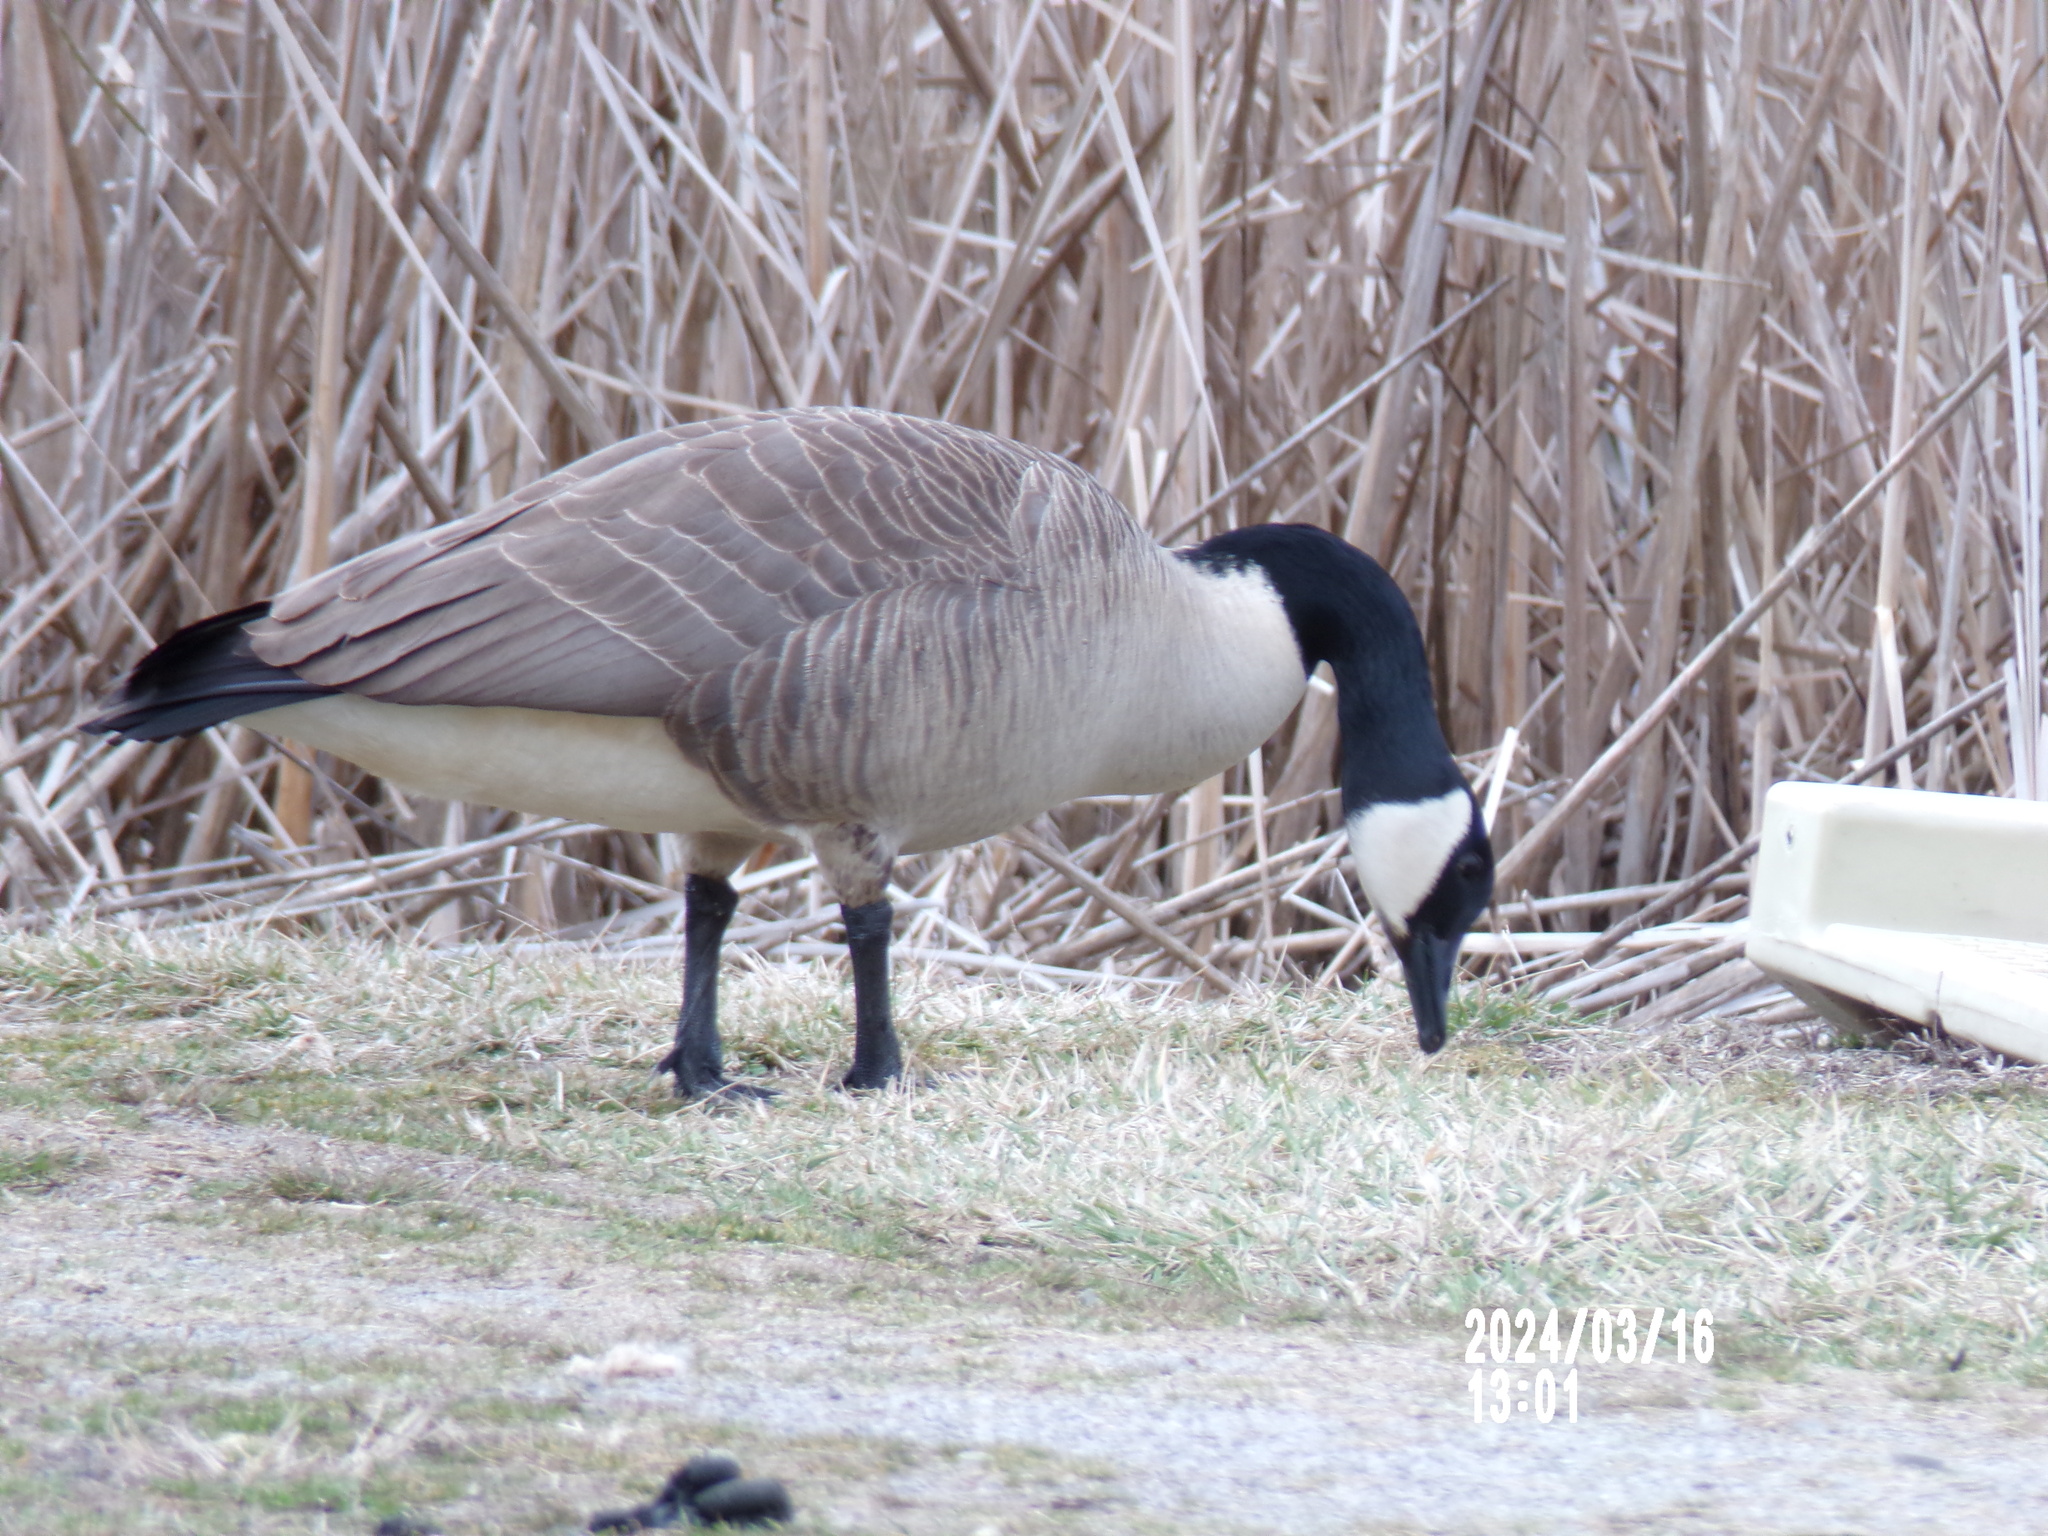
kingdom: Animalia
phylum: Chordata
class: Aves
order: Anseriformes
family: Anatidae
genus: Branta
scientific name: Branta canadensis
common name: Canada goose
